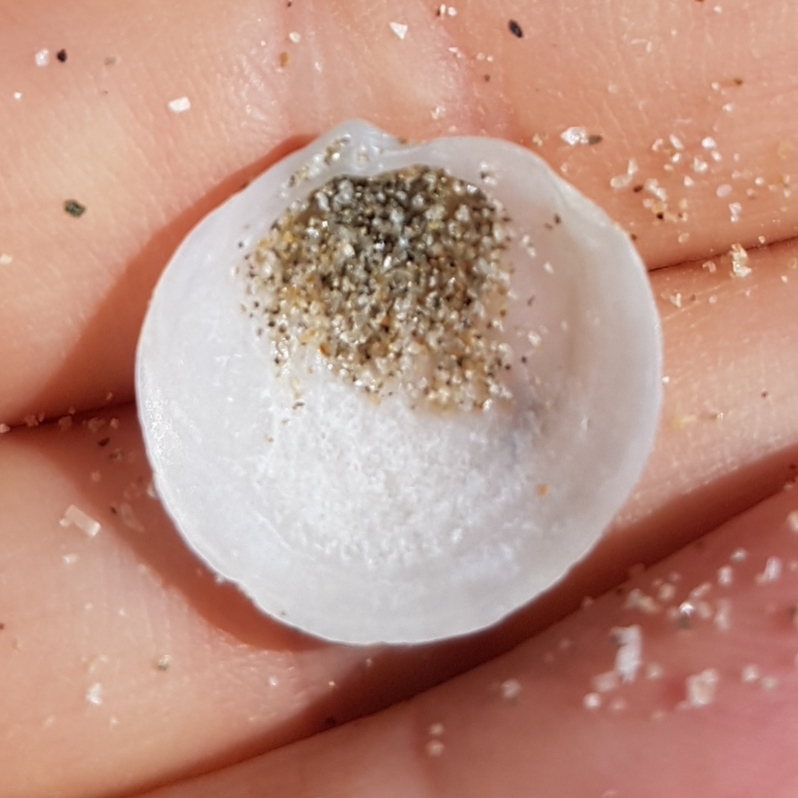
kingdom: Animalia
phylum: Mollusca
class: Bivalvia
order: Lucinida
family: Lucinidae
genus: Loripes
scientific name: Loripes orbiculatus
